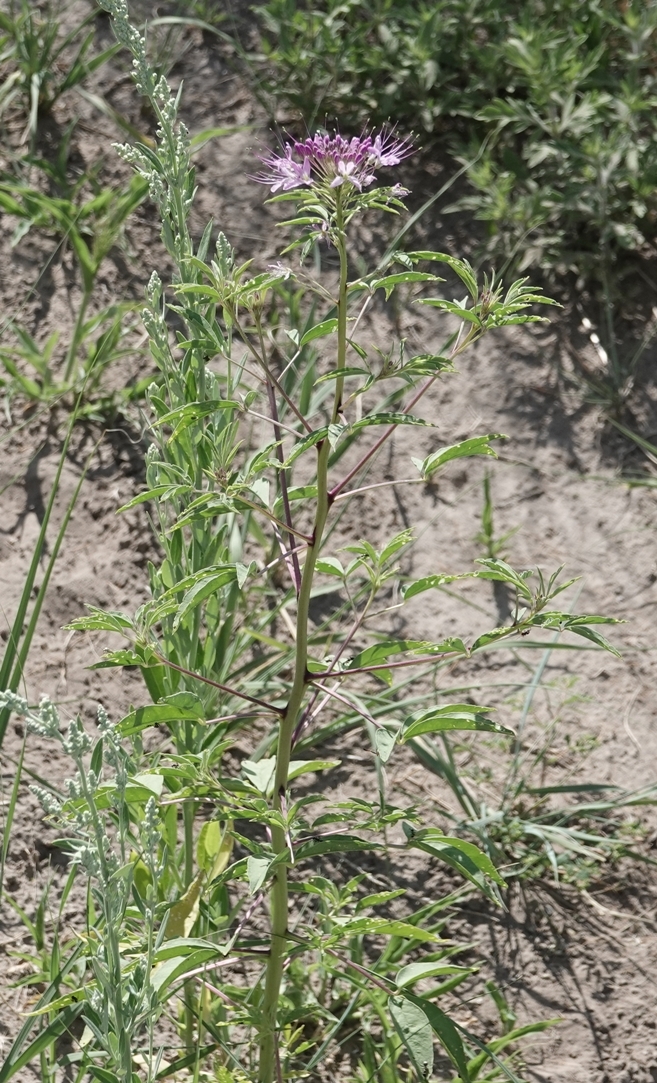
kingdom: Plantae
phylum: Tracheophyta
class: Magnoliopsida
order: Brassicales
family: Cleomaceae
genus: Cleomella
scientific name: Cleomella serrulata
